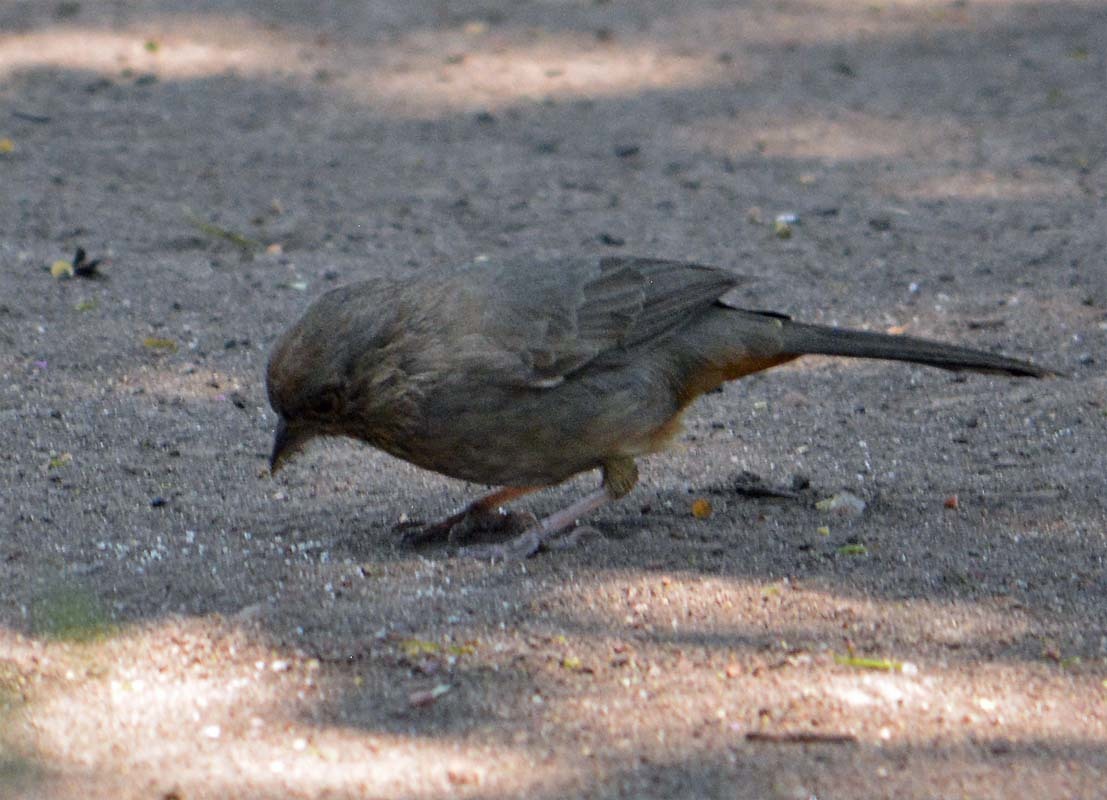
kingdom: Animalia
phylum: Chordata
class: Aves
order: Passeriformes
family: Passerellidae
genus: Melozone
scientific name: Melozone fusca
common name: Canyon towhee
